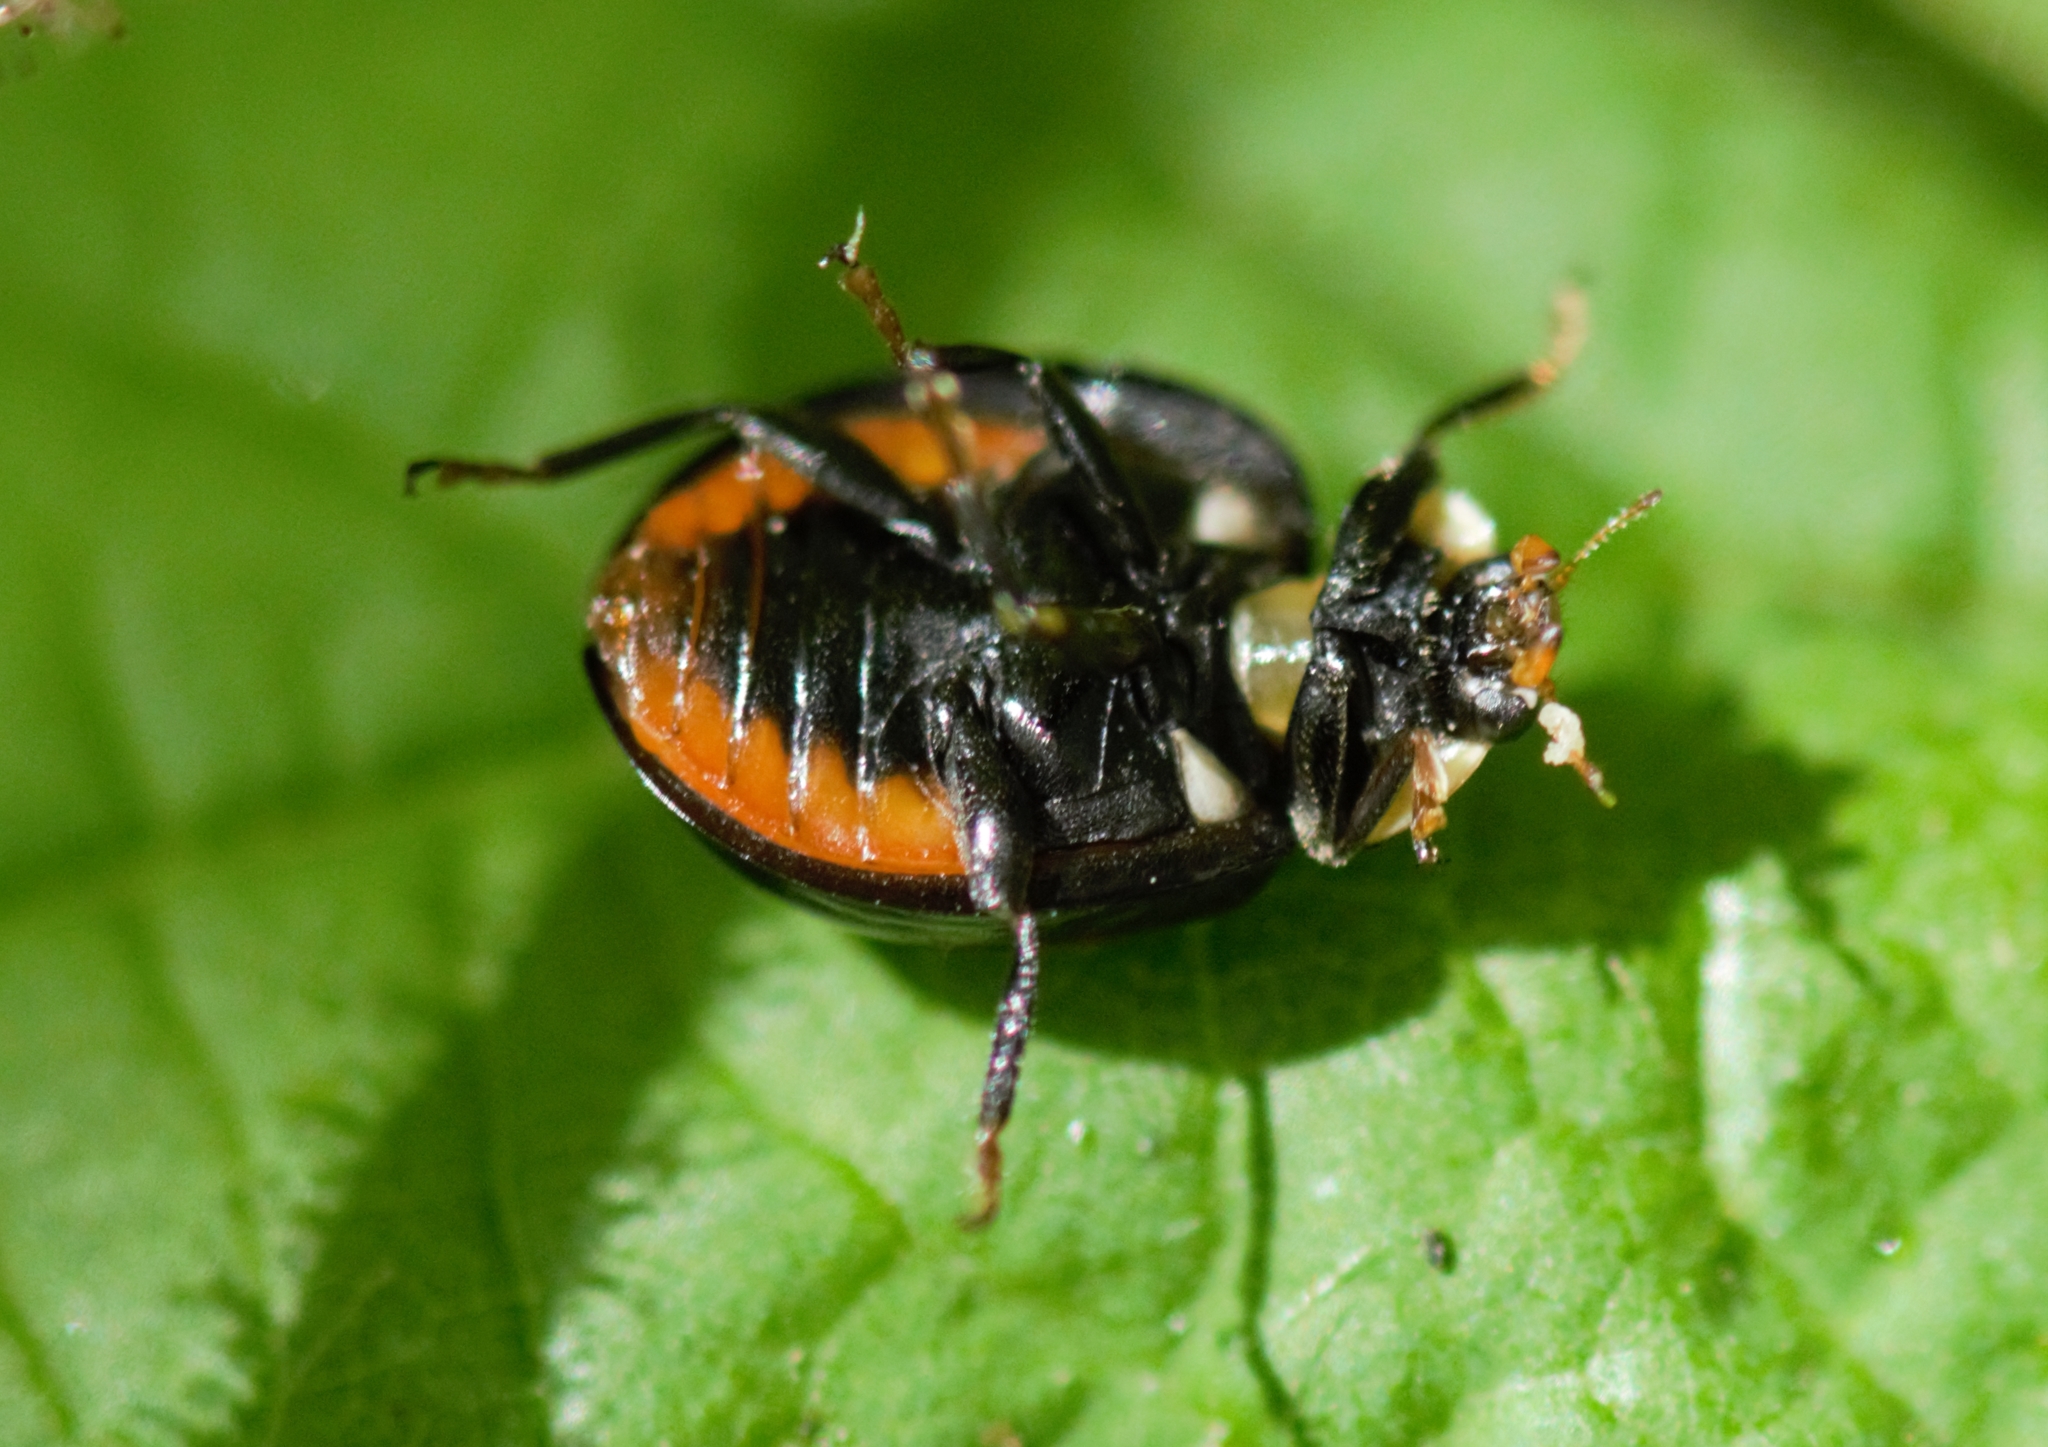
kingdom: Animalia
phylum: Arthropoda
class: Insecta
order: Coleoptera
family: Coccinellidae
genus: Harmonia
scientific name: Harmonia axyridis
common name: Harlequin ladybird
